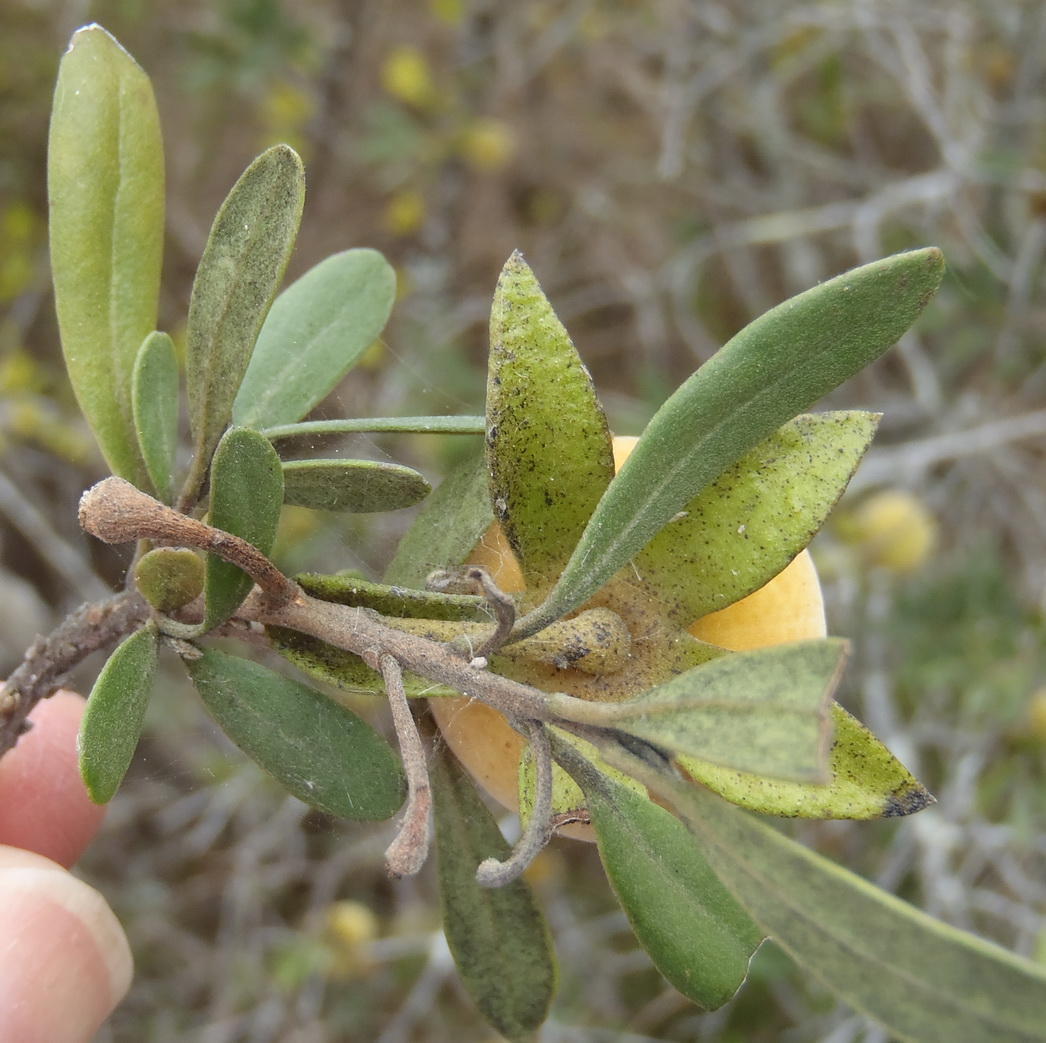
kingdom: Plantae
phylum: Tracheophyta
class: Magnoliopsida
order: Ericales
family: Ebenaceae
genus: Diospyros
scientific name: Diospyros dichrophylla
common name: Common star-apple
